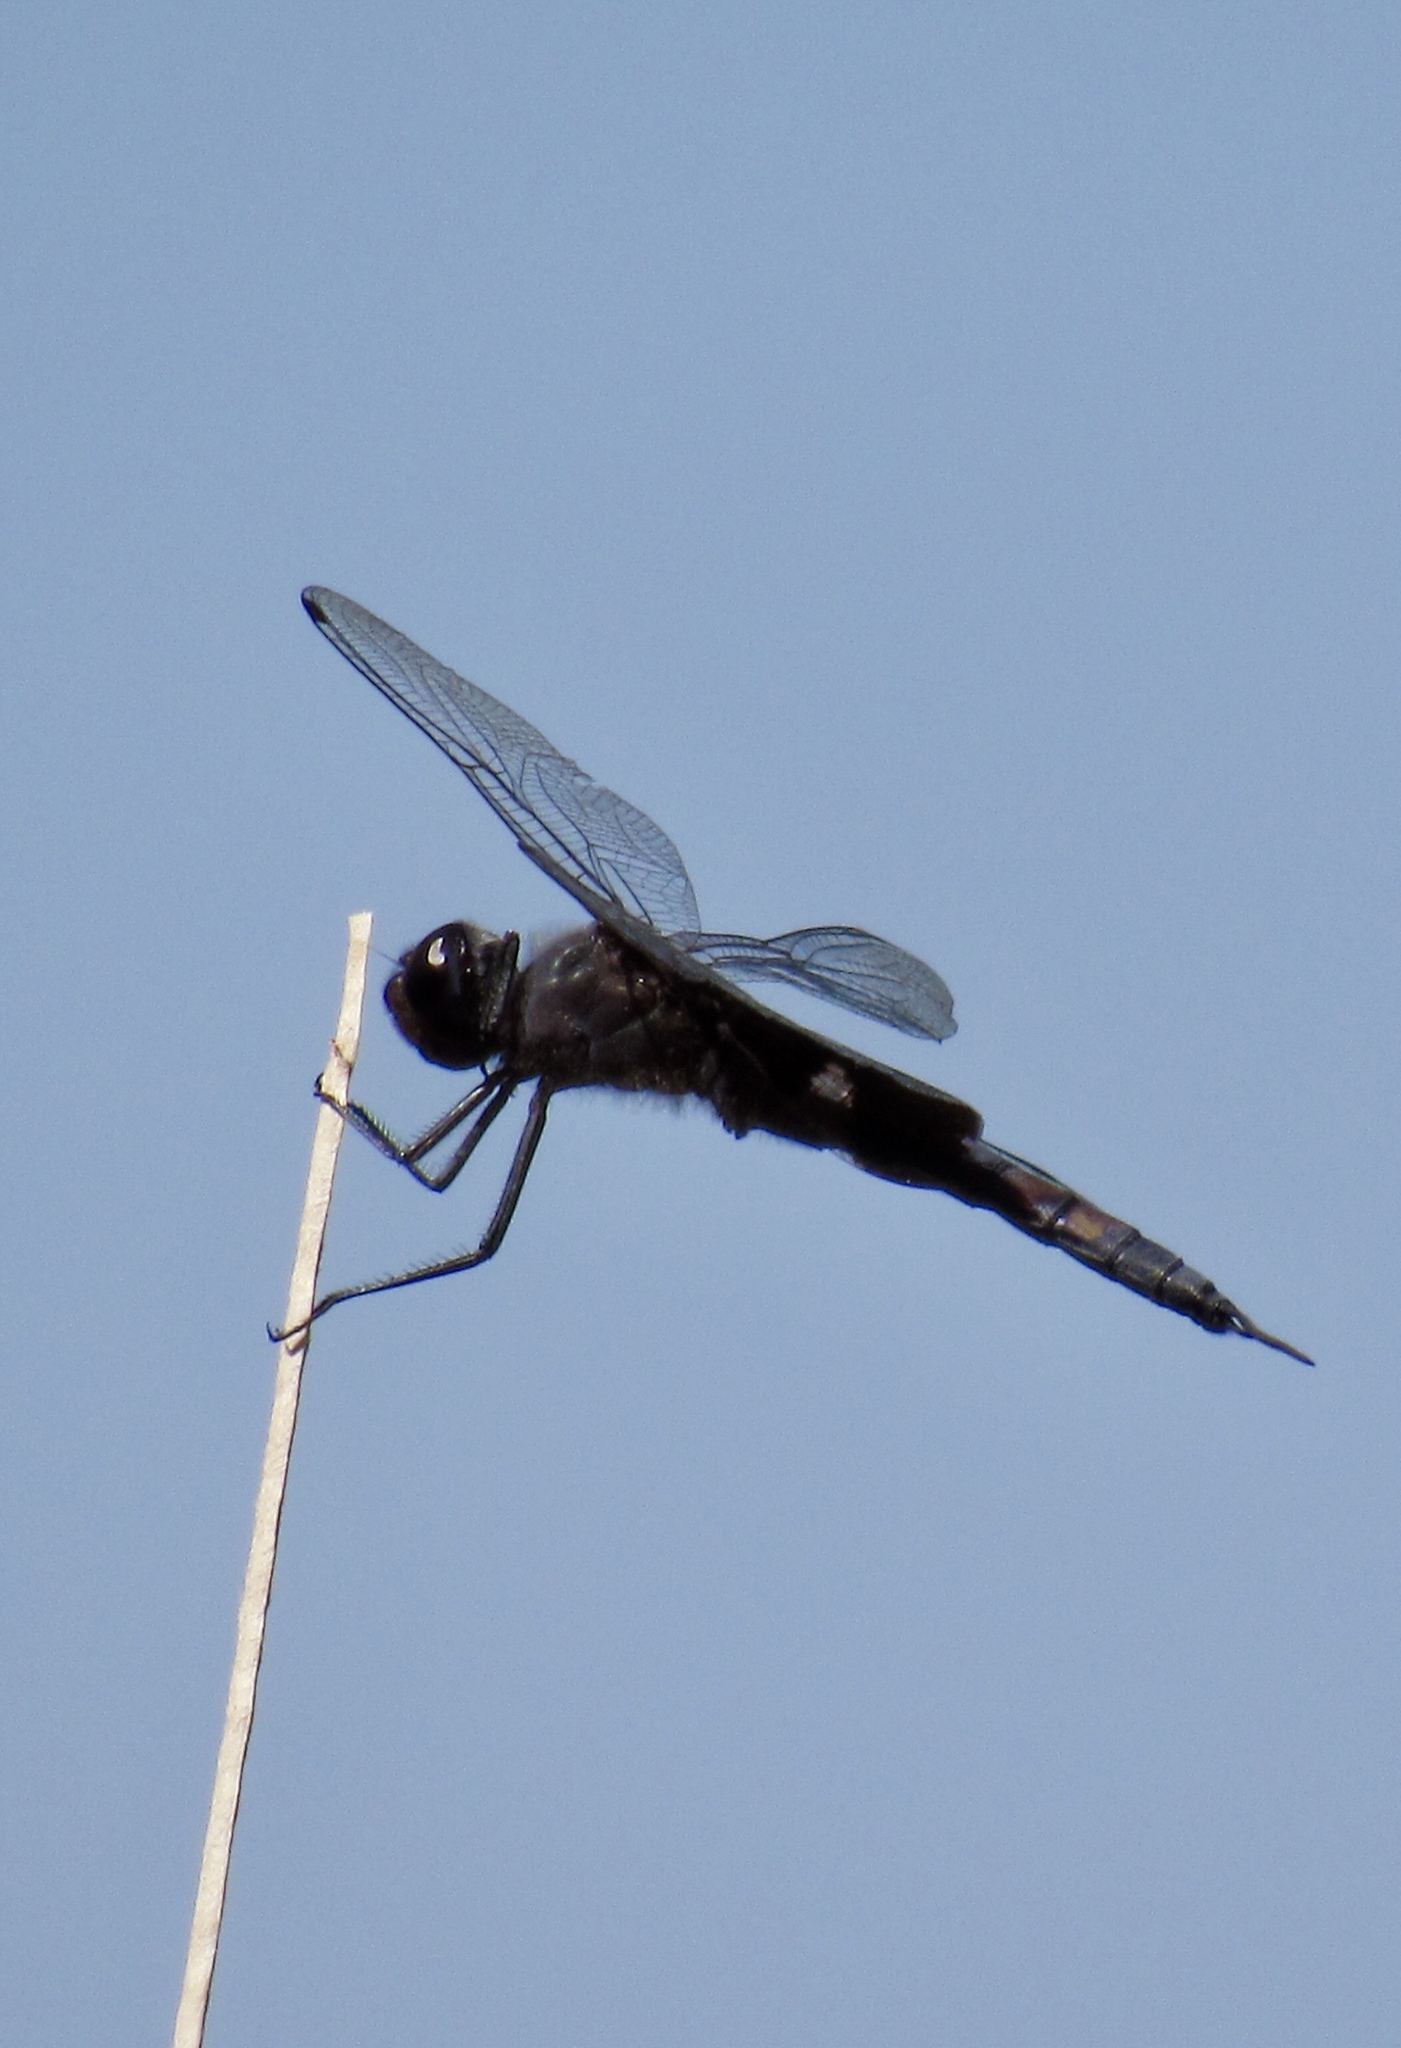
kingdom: Animalia
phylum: Arthropoda
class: Insecta
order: Odonata
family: Libellulidae
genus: Tramea
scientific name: Tramea lacerata
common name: Black saddlebags
